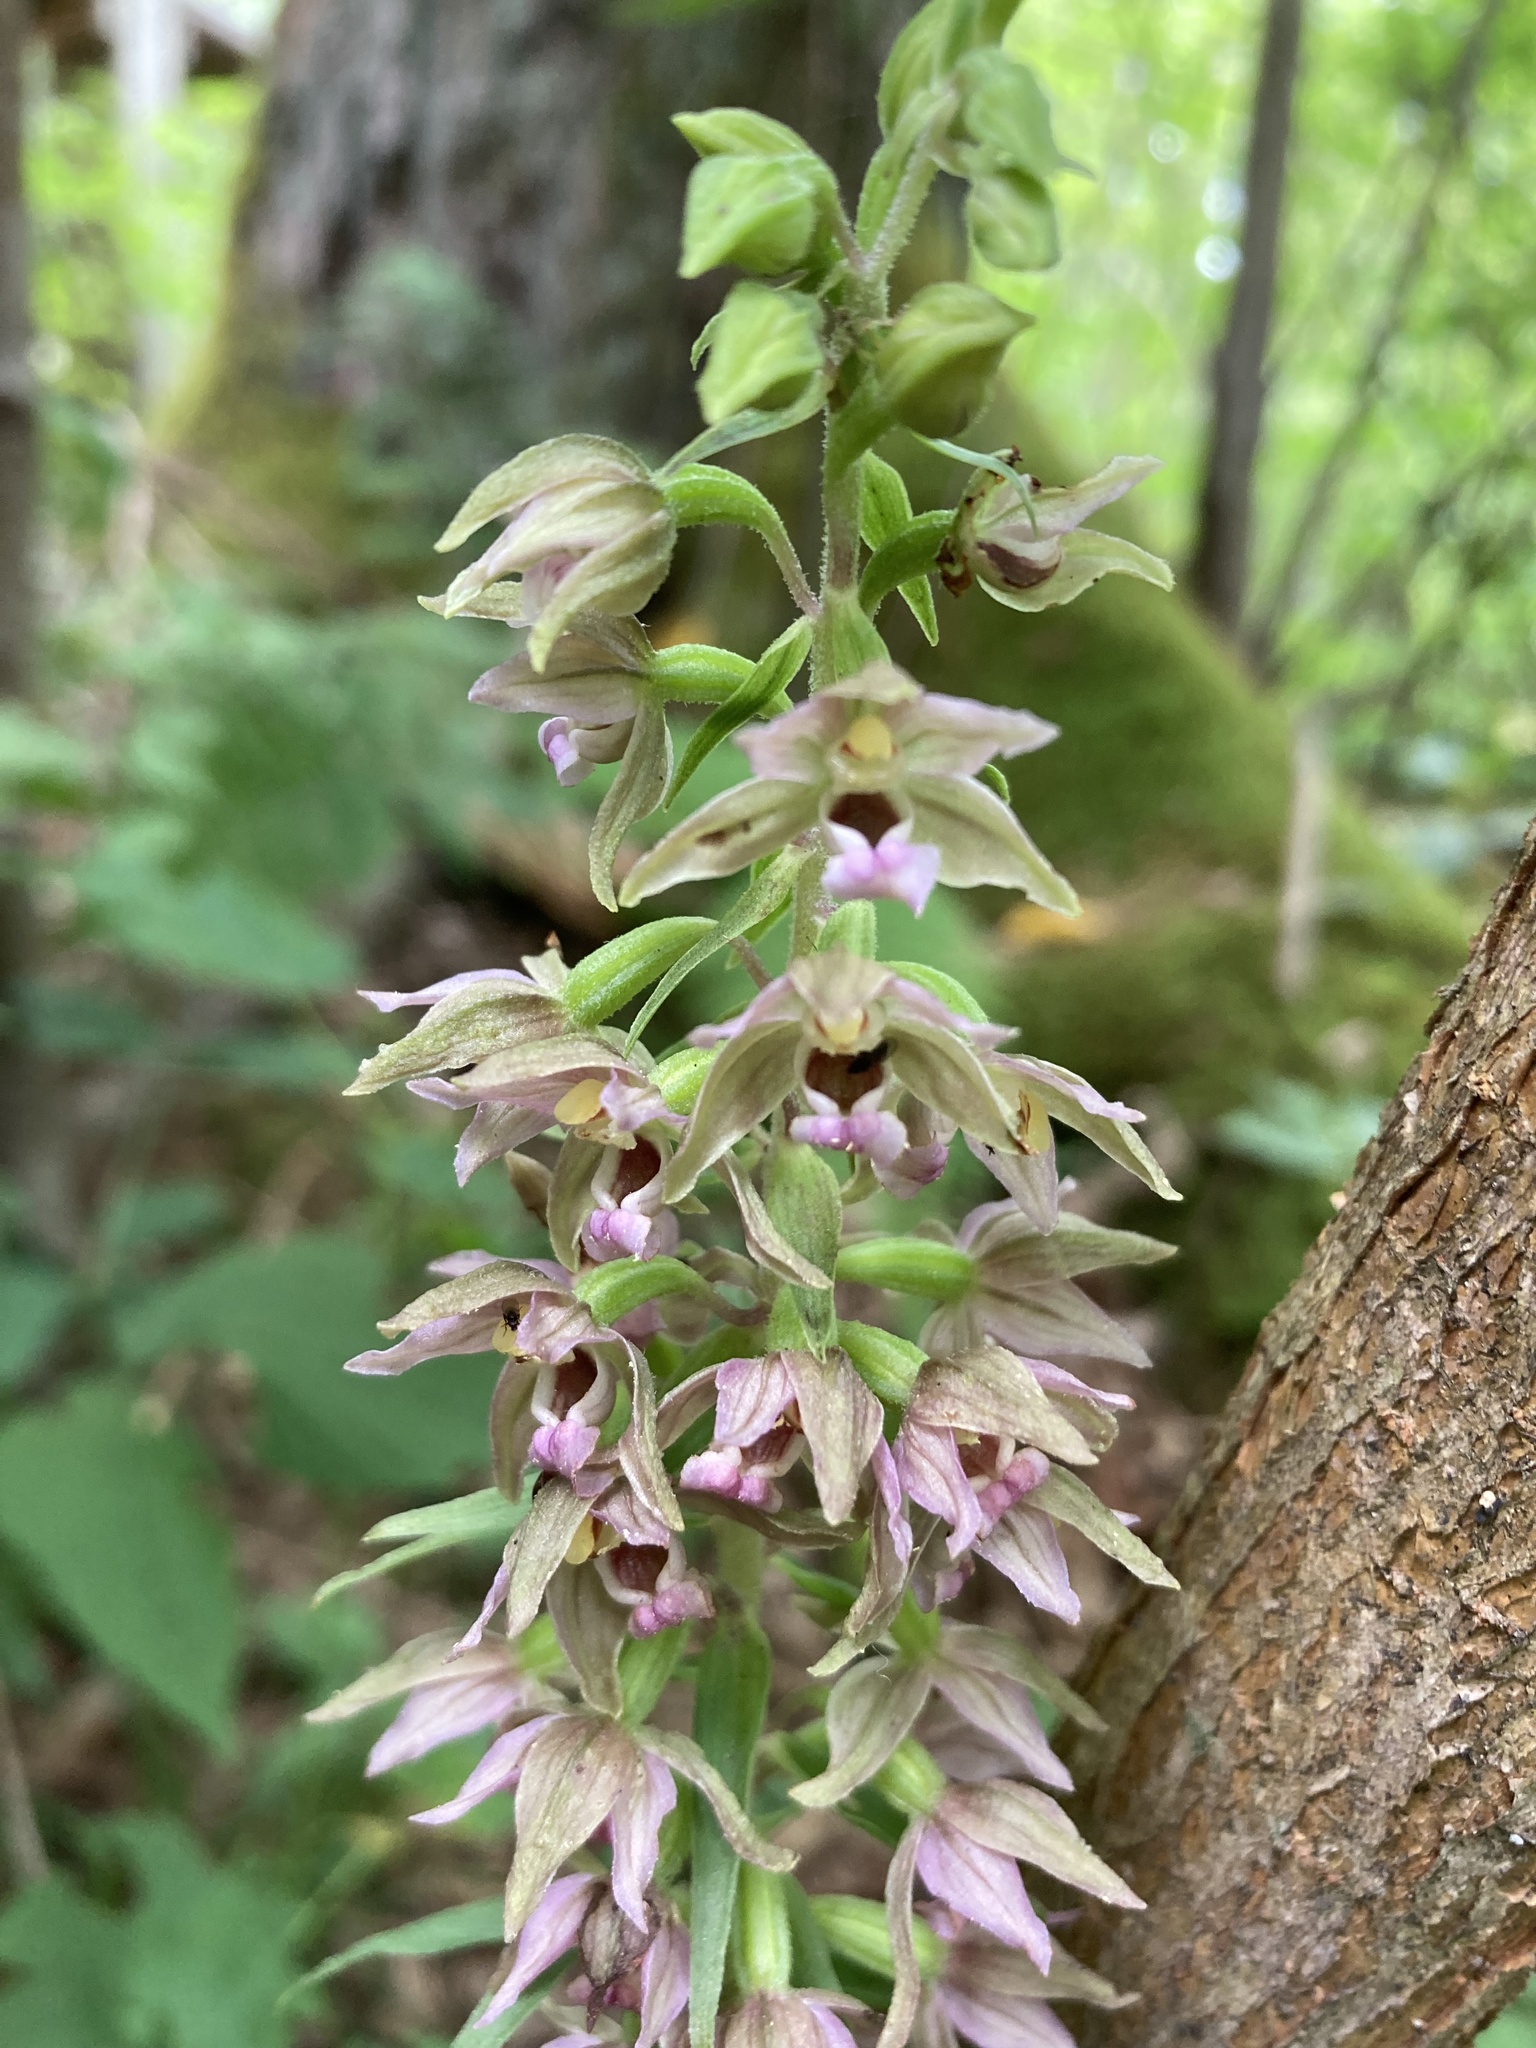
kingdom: Plantae
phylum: Tracheophyta
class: Liliopsida
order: Asparagales
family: Orchidaceae
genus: Epipactis
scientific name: Epipactis helleborine
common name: Broad-leaved helleborine
